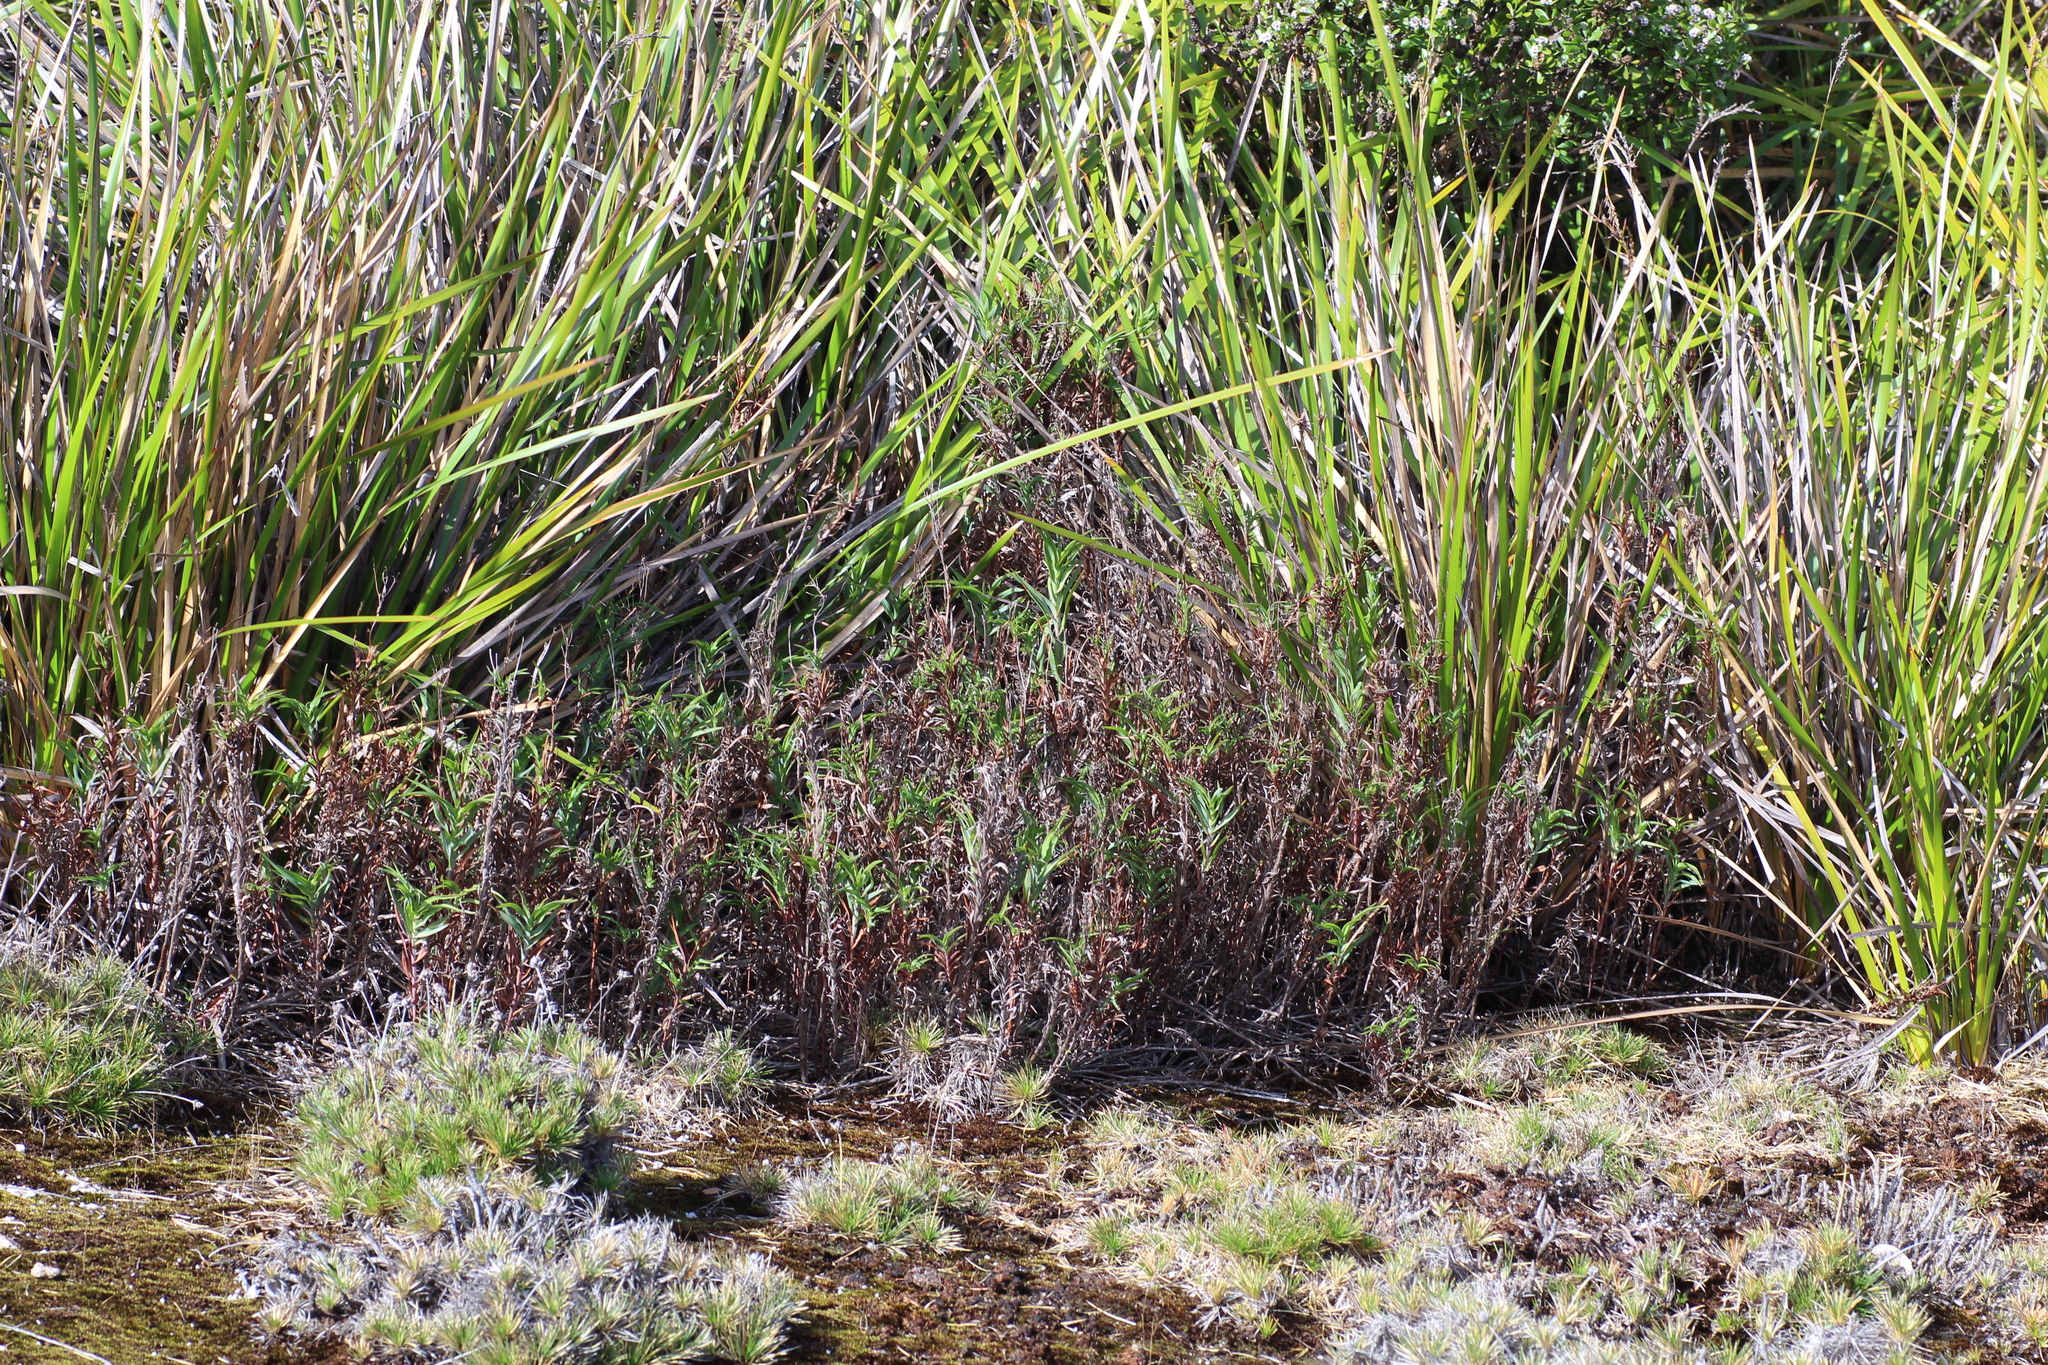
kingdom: Plantae
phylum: Tracheophyta
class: Liliopsida
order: Asparagales
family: Asphodelaceae
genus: Stypandra
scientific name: Stypandra glauca
